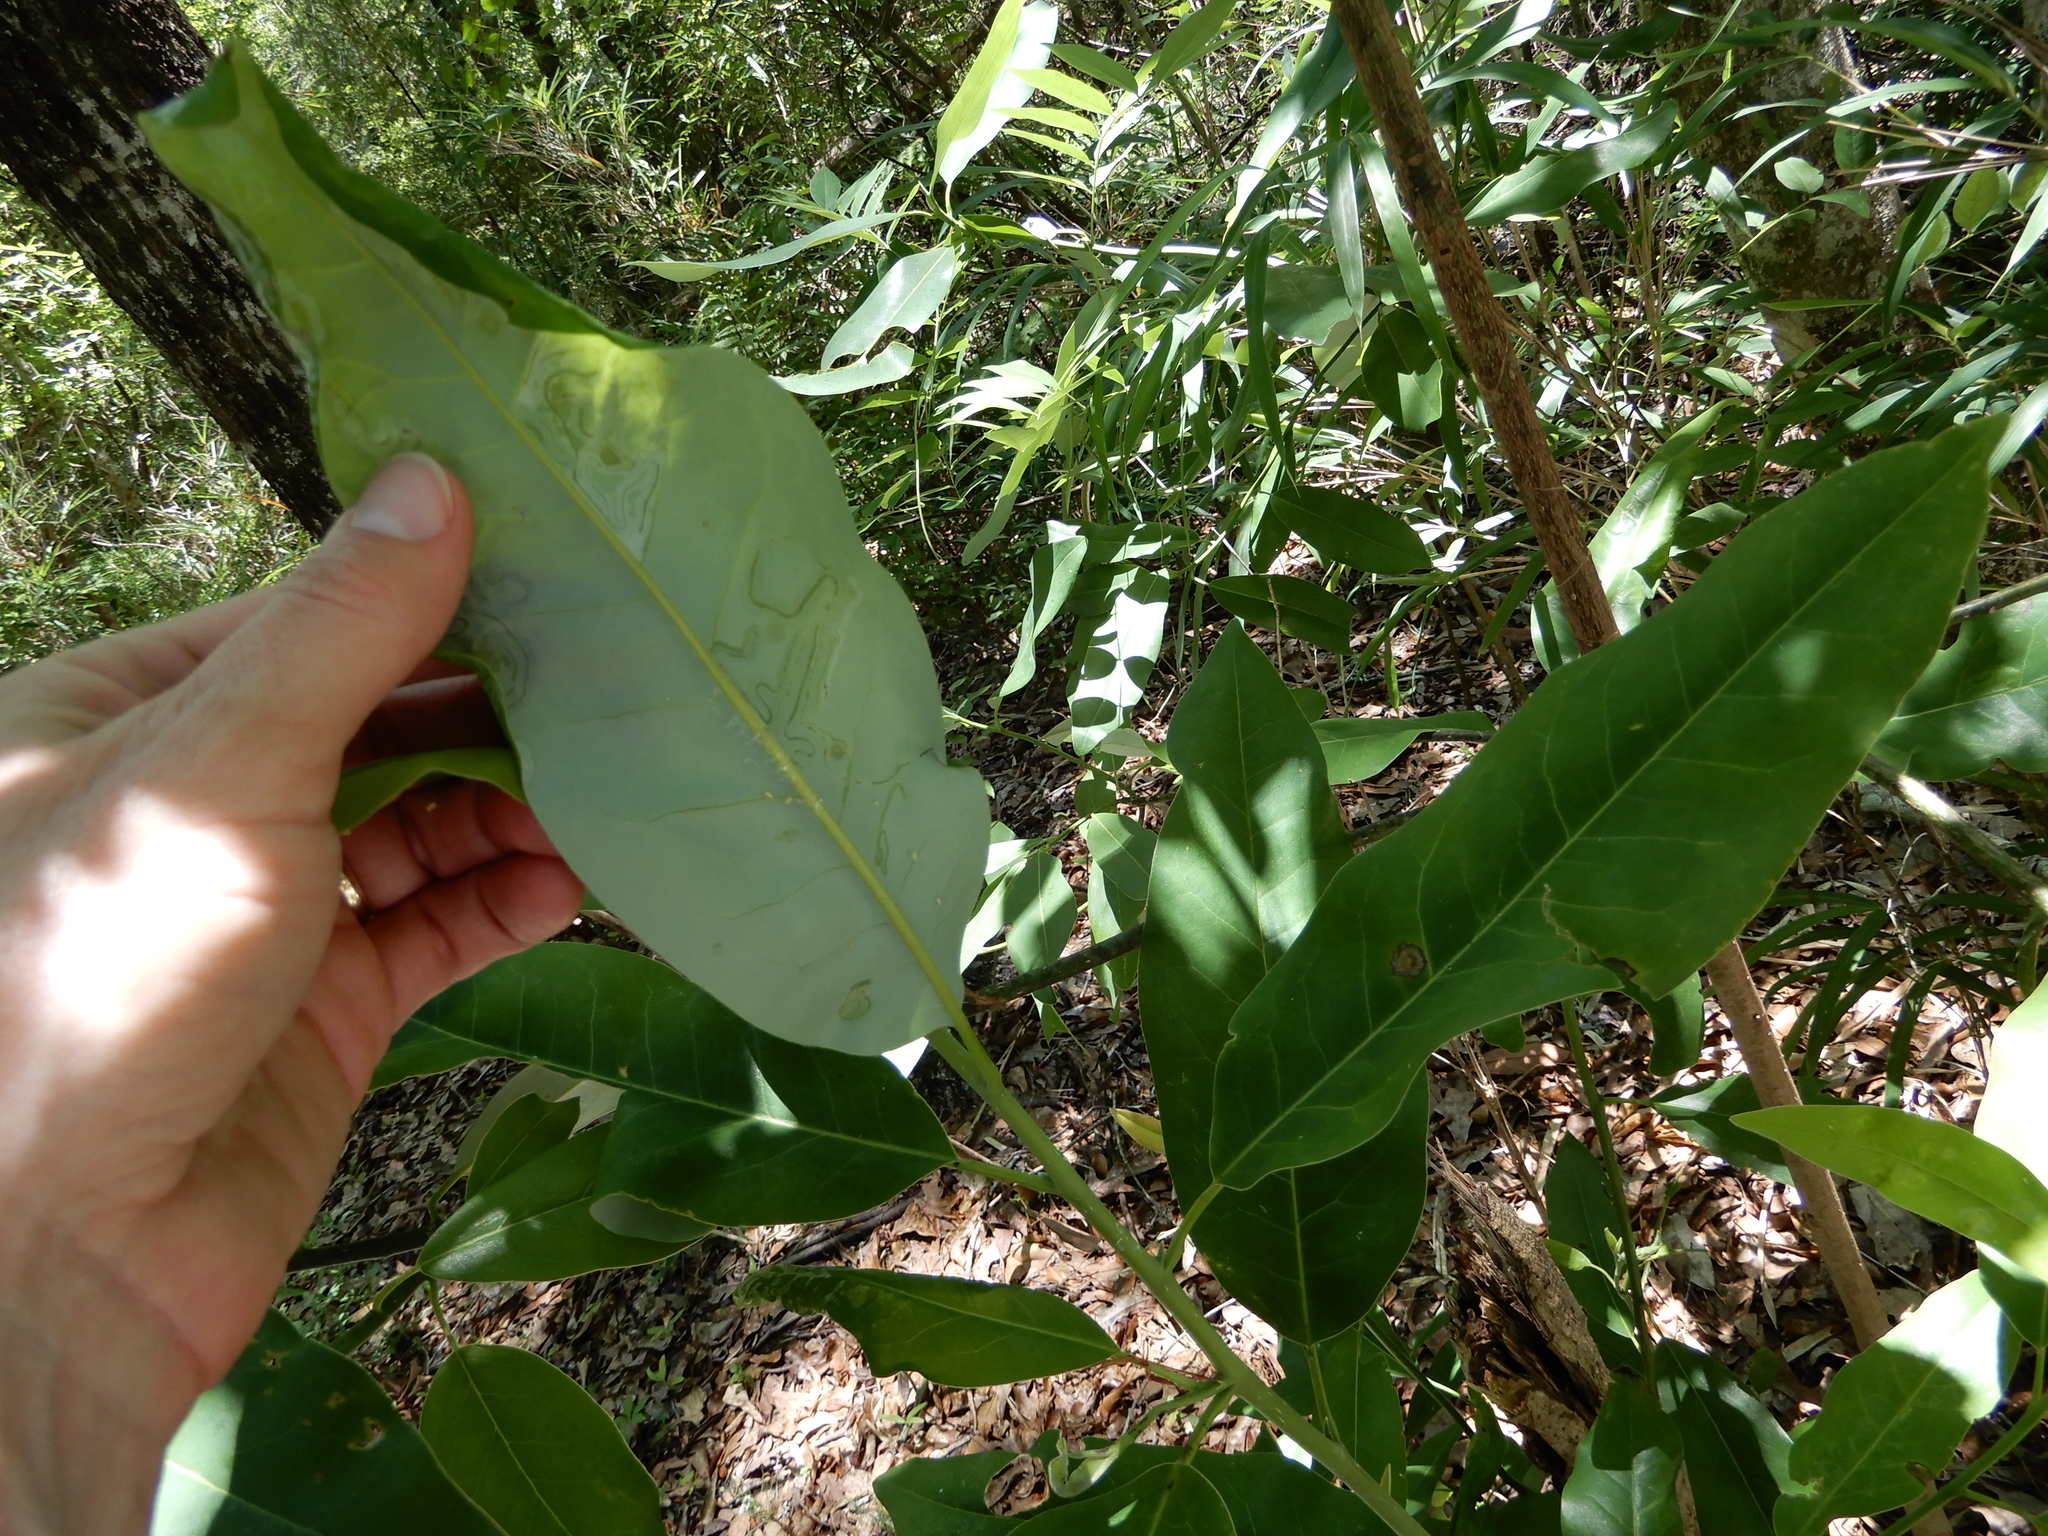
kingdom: Plantae
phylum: Tracheophyta
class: Magnoliopsida
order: Magnoliales
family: Magnoliaceae
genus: Magnolia
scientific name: Magnolia virginiana
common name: Swamp bay
